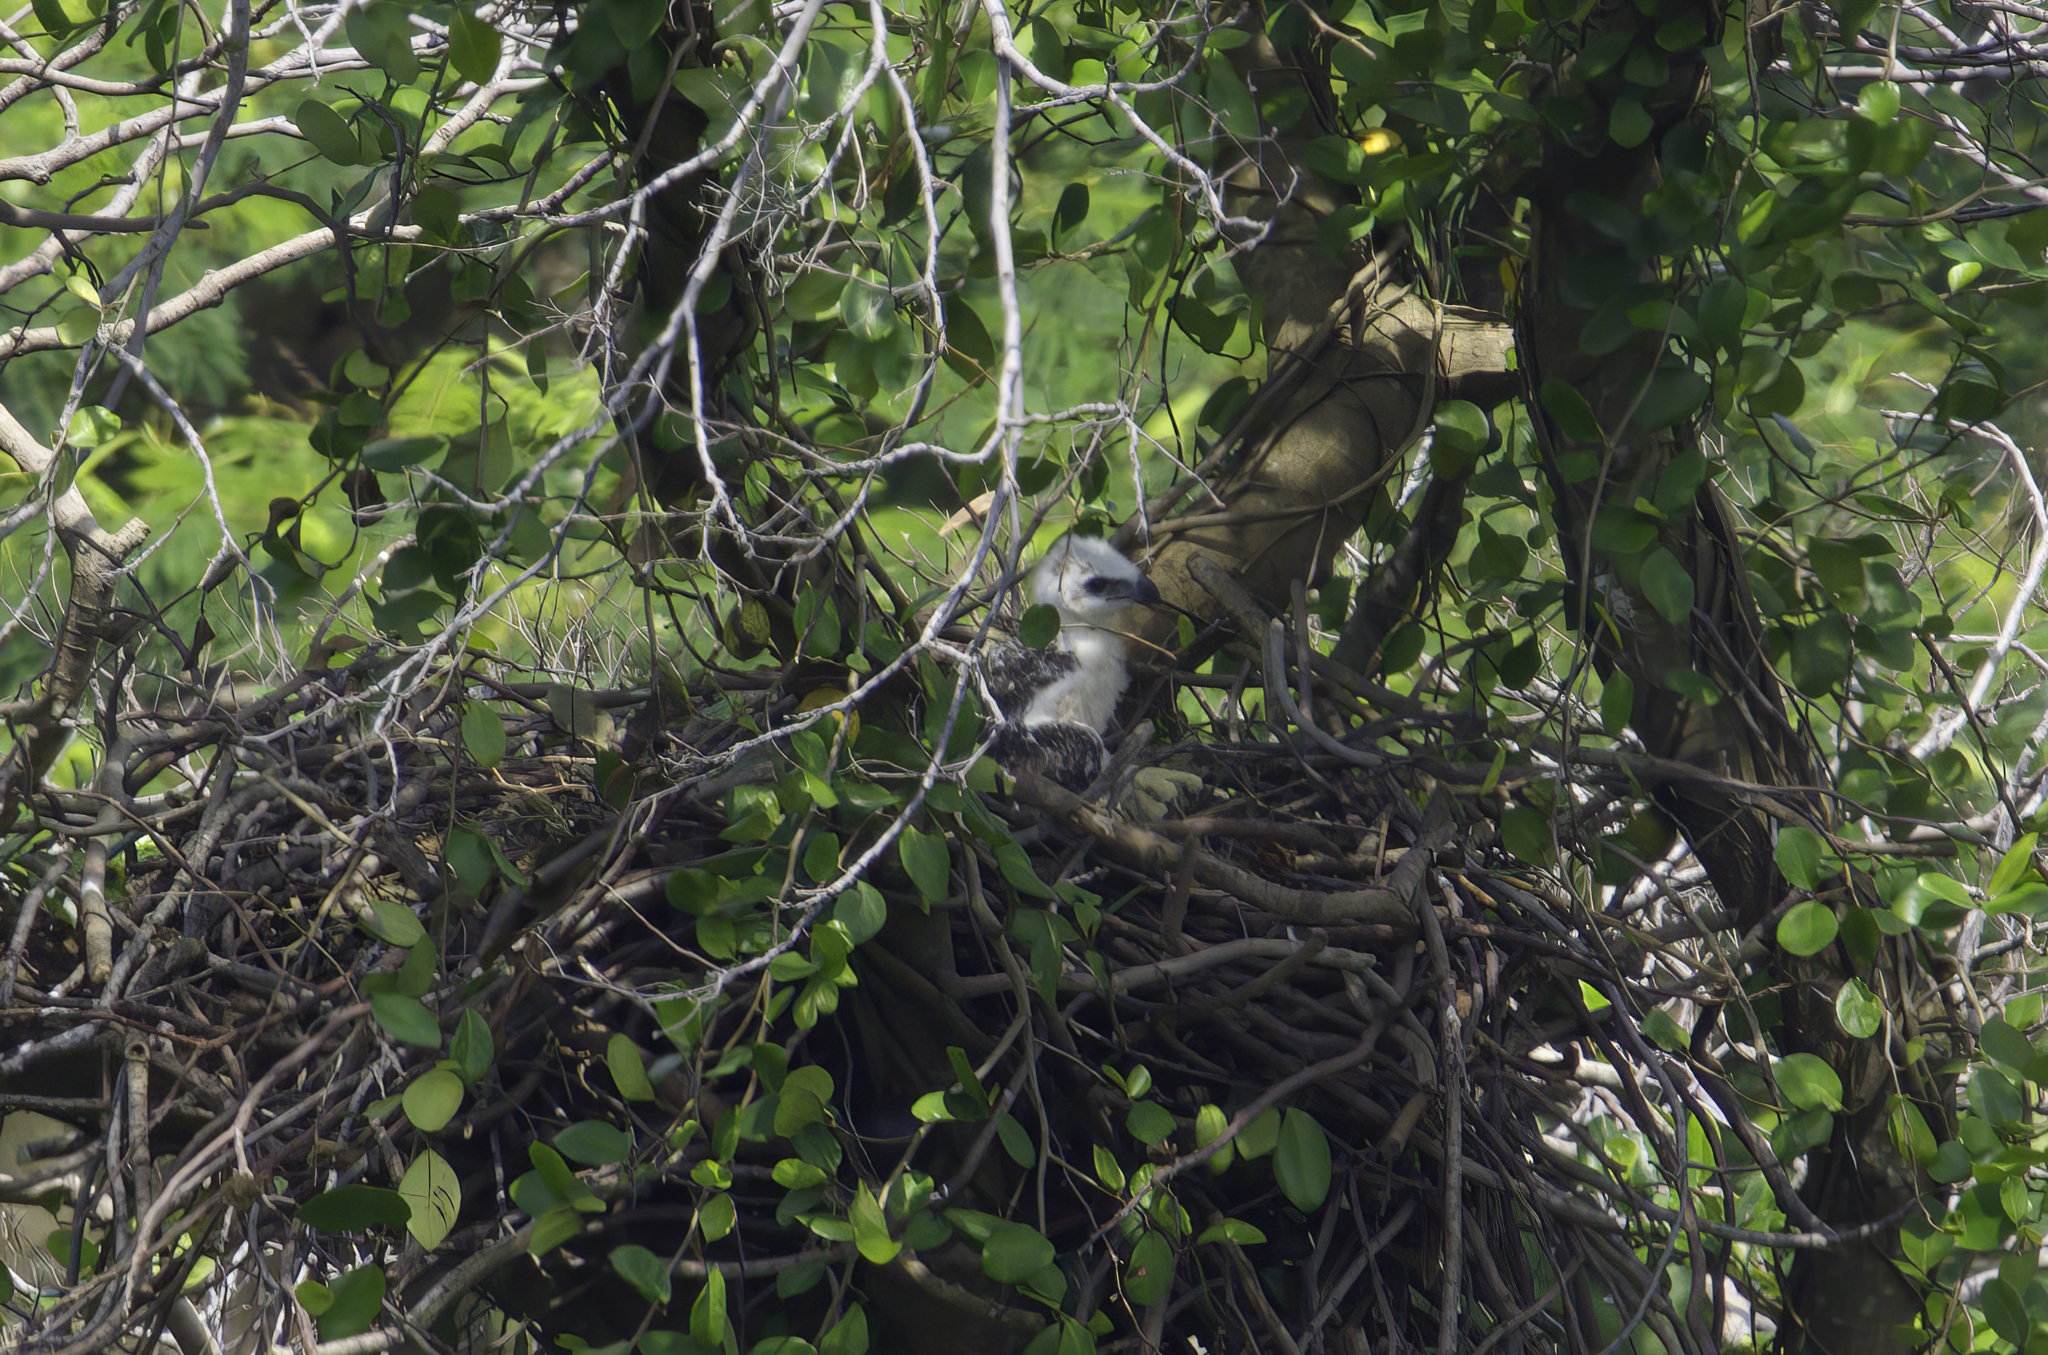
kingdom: Animalia
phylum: Chordata
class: Aves
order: Accipitriformes
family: Accipitridae
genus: Nisaetus
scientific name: Nisaetus cirrhatus
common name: Changeable hawk-eagle
